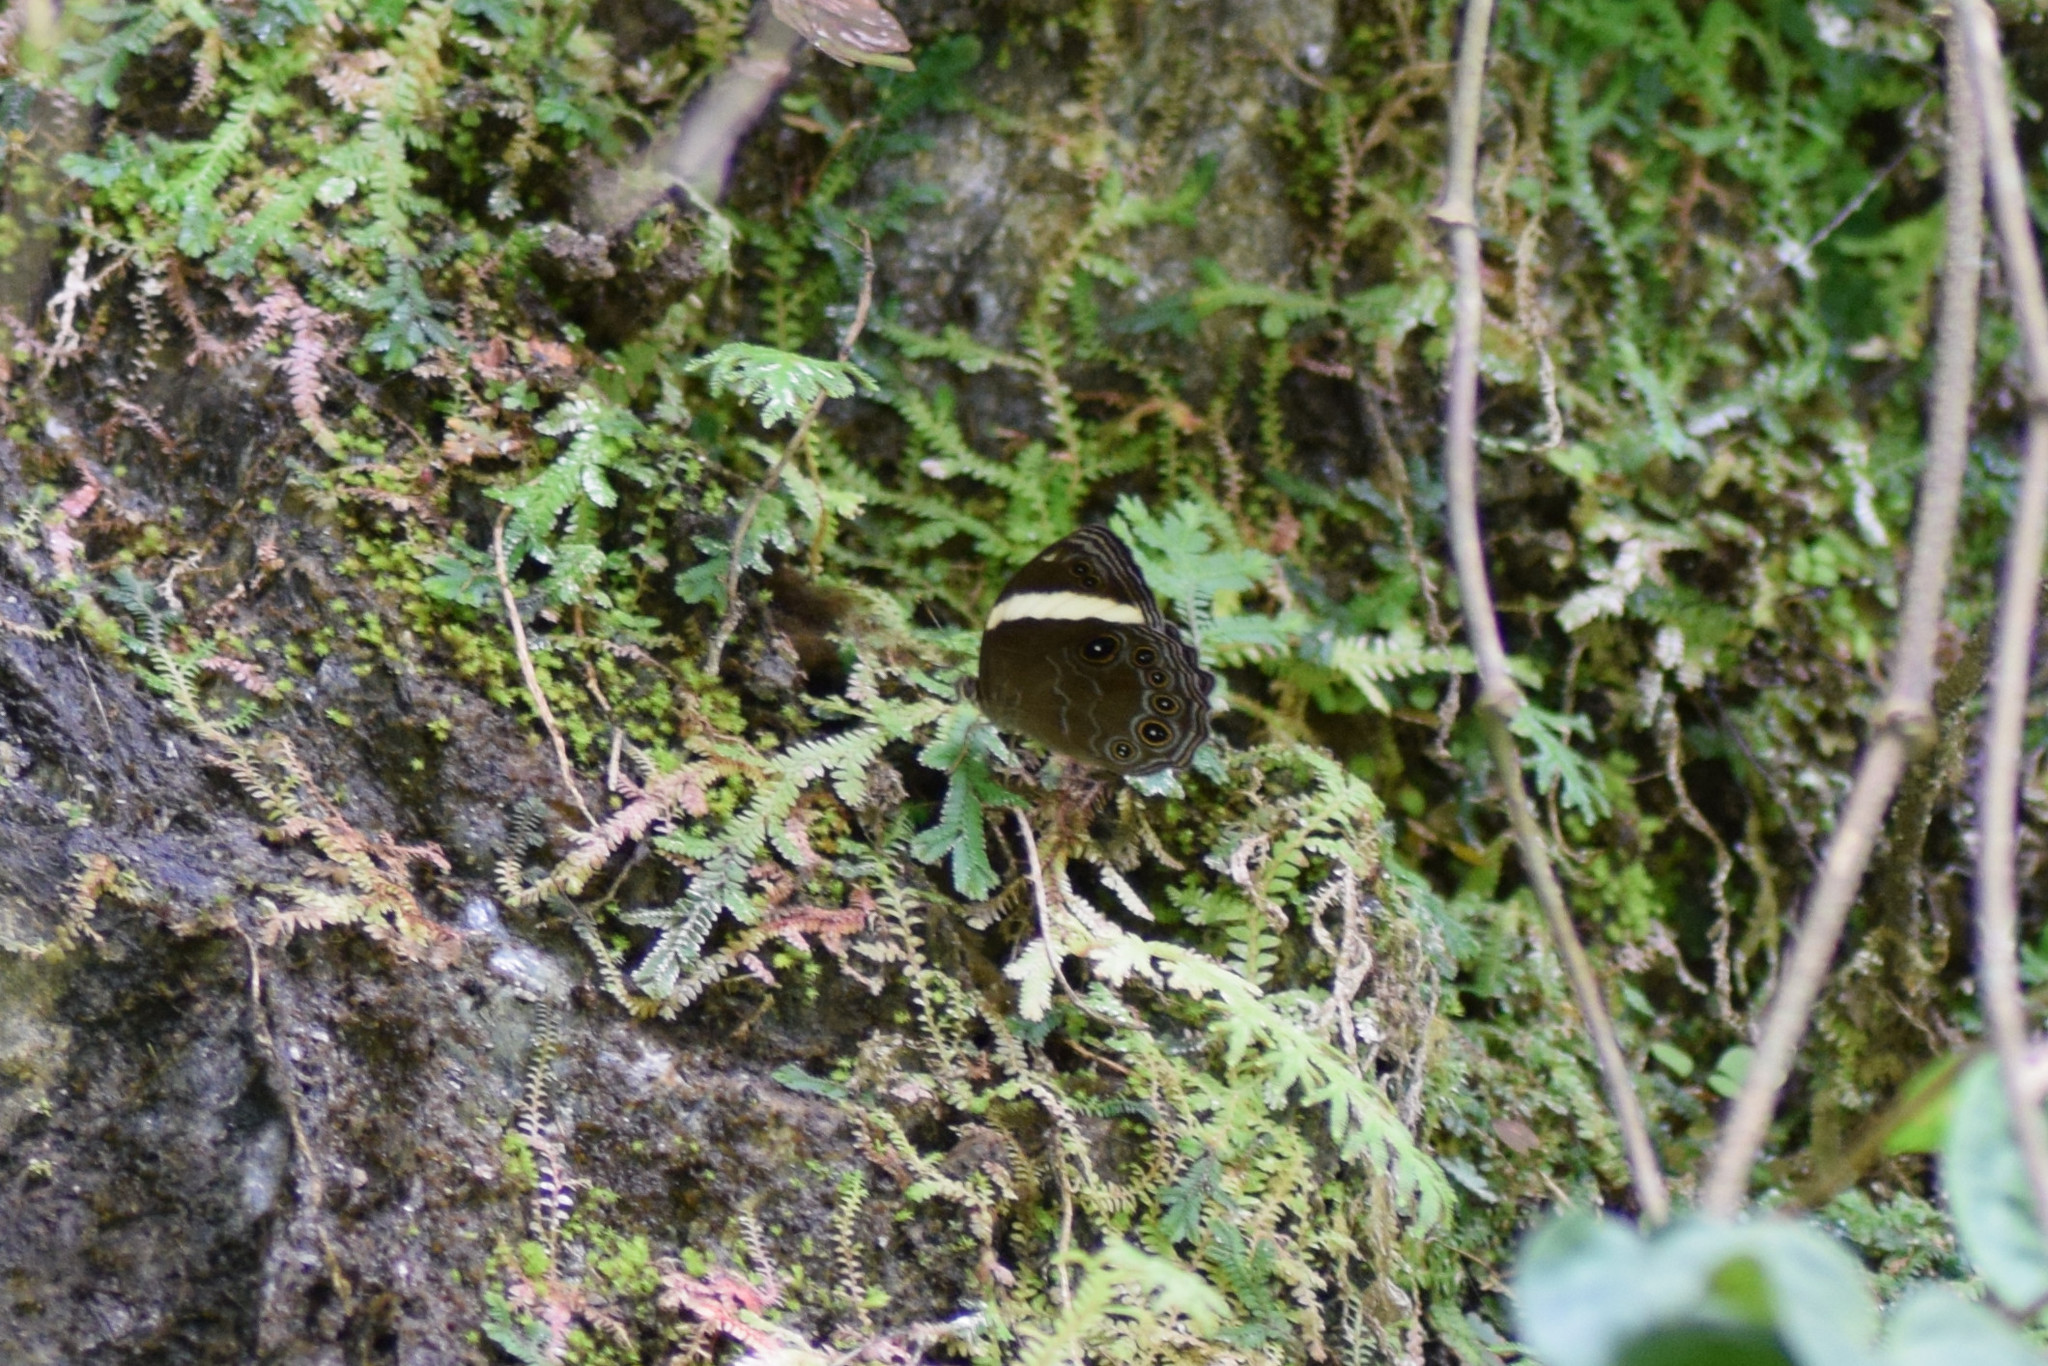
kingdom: Animalia
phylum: Arthropoda
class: Insecta
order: Lepidoptera
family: Nymphalidae
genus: Lethe
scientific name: Lethe verma
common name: Straight-banded treebrown
